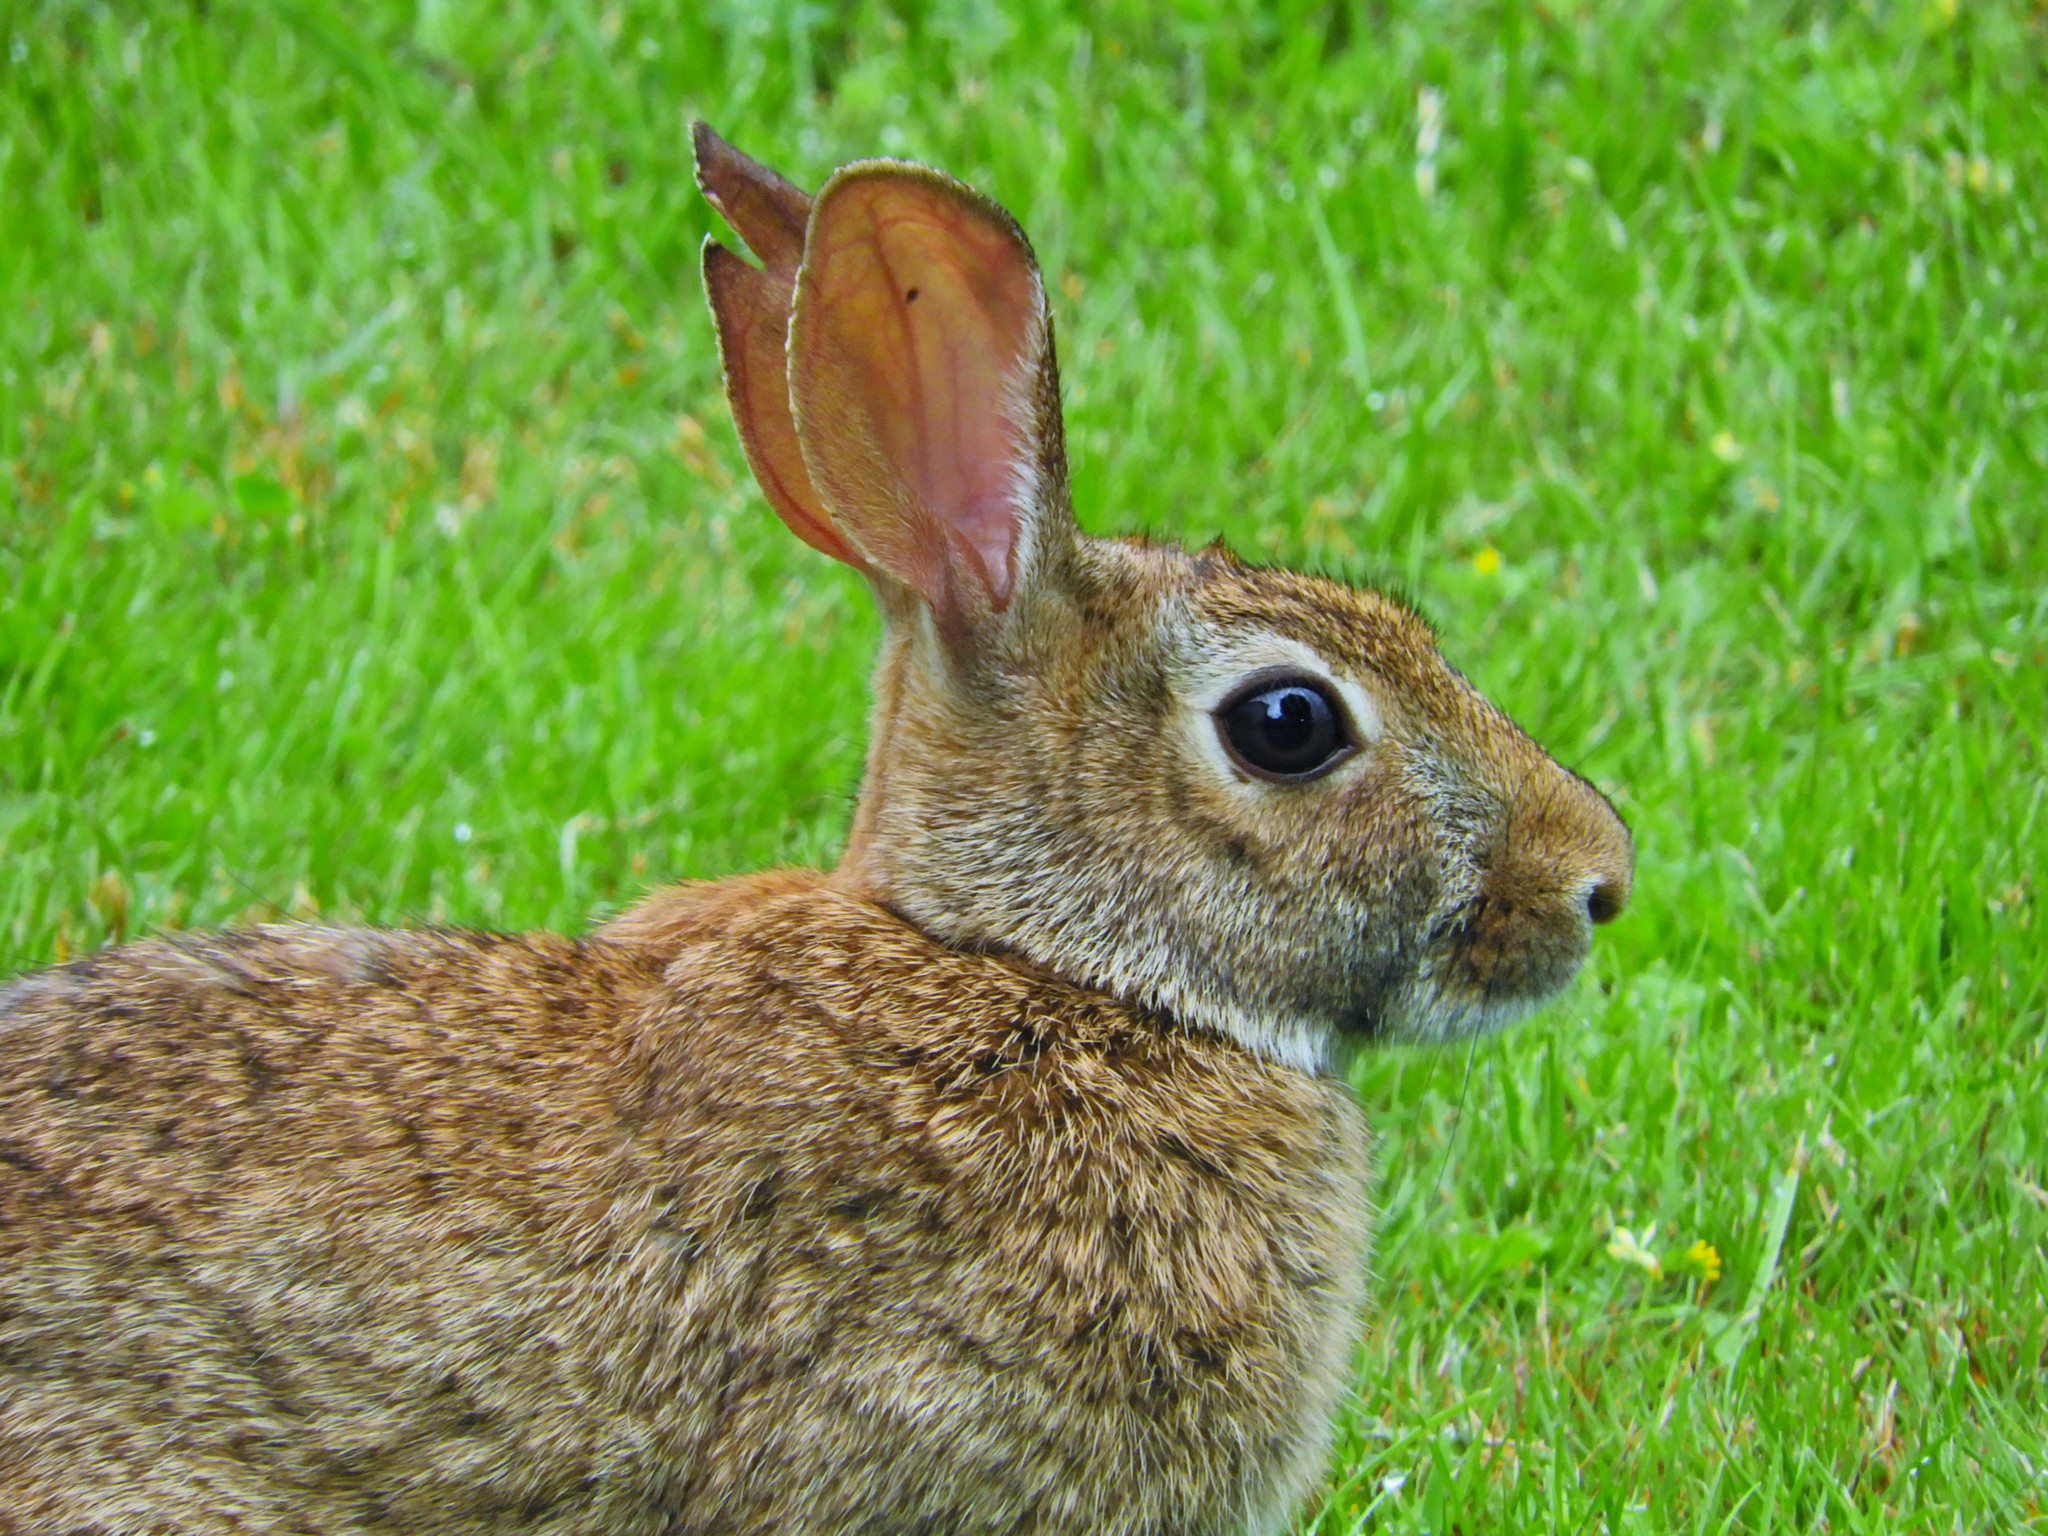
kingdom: Animalia
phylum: Chordata
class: Mammalia
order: Lagomorpha
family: Leporidae
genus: Sylvilagus
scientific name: Sylvilagus floridanus
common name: Eastern cottontail
